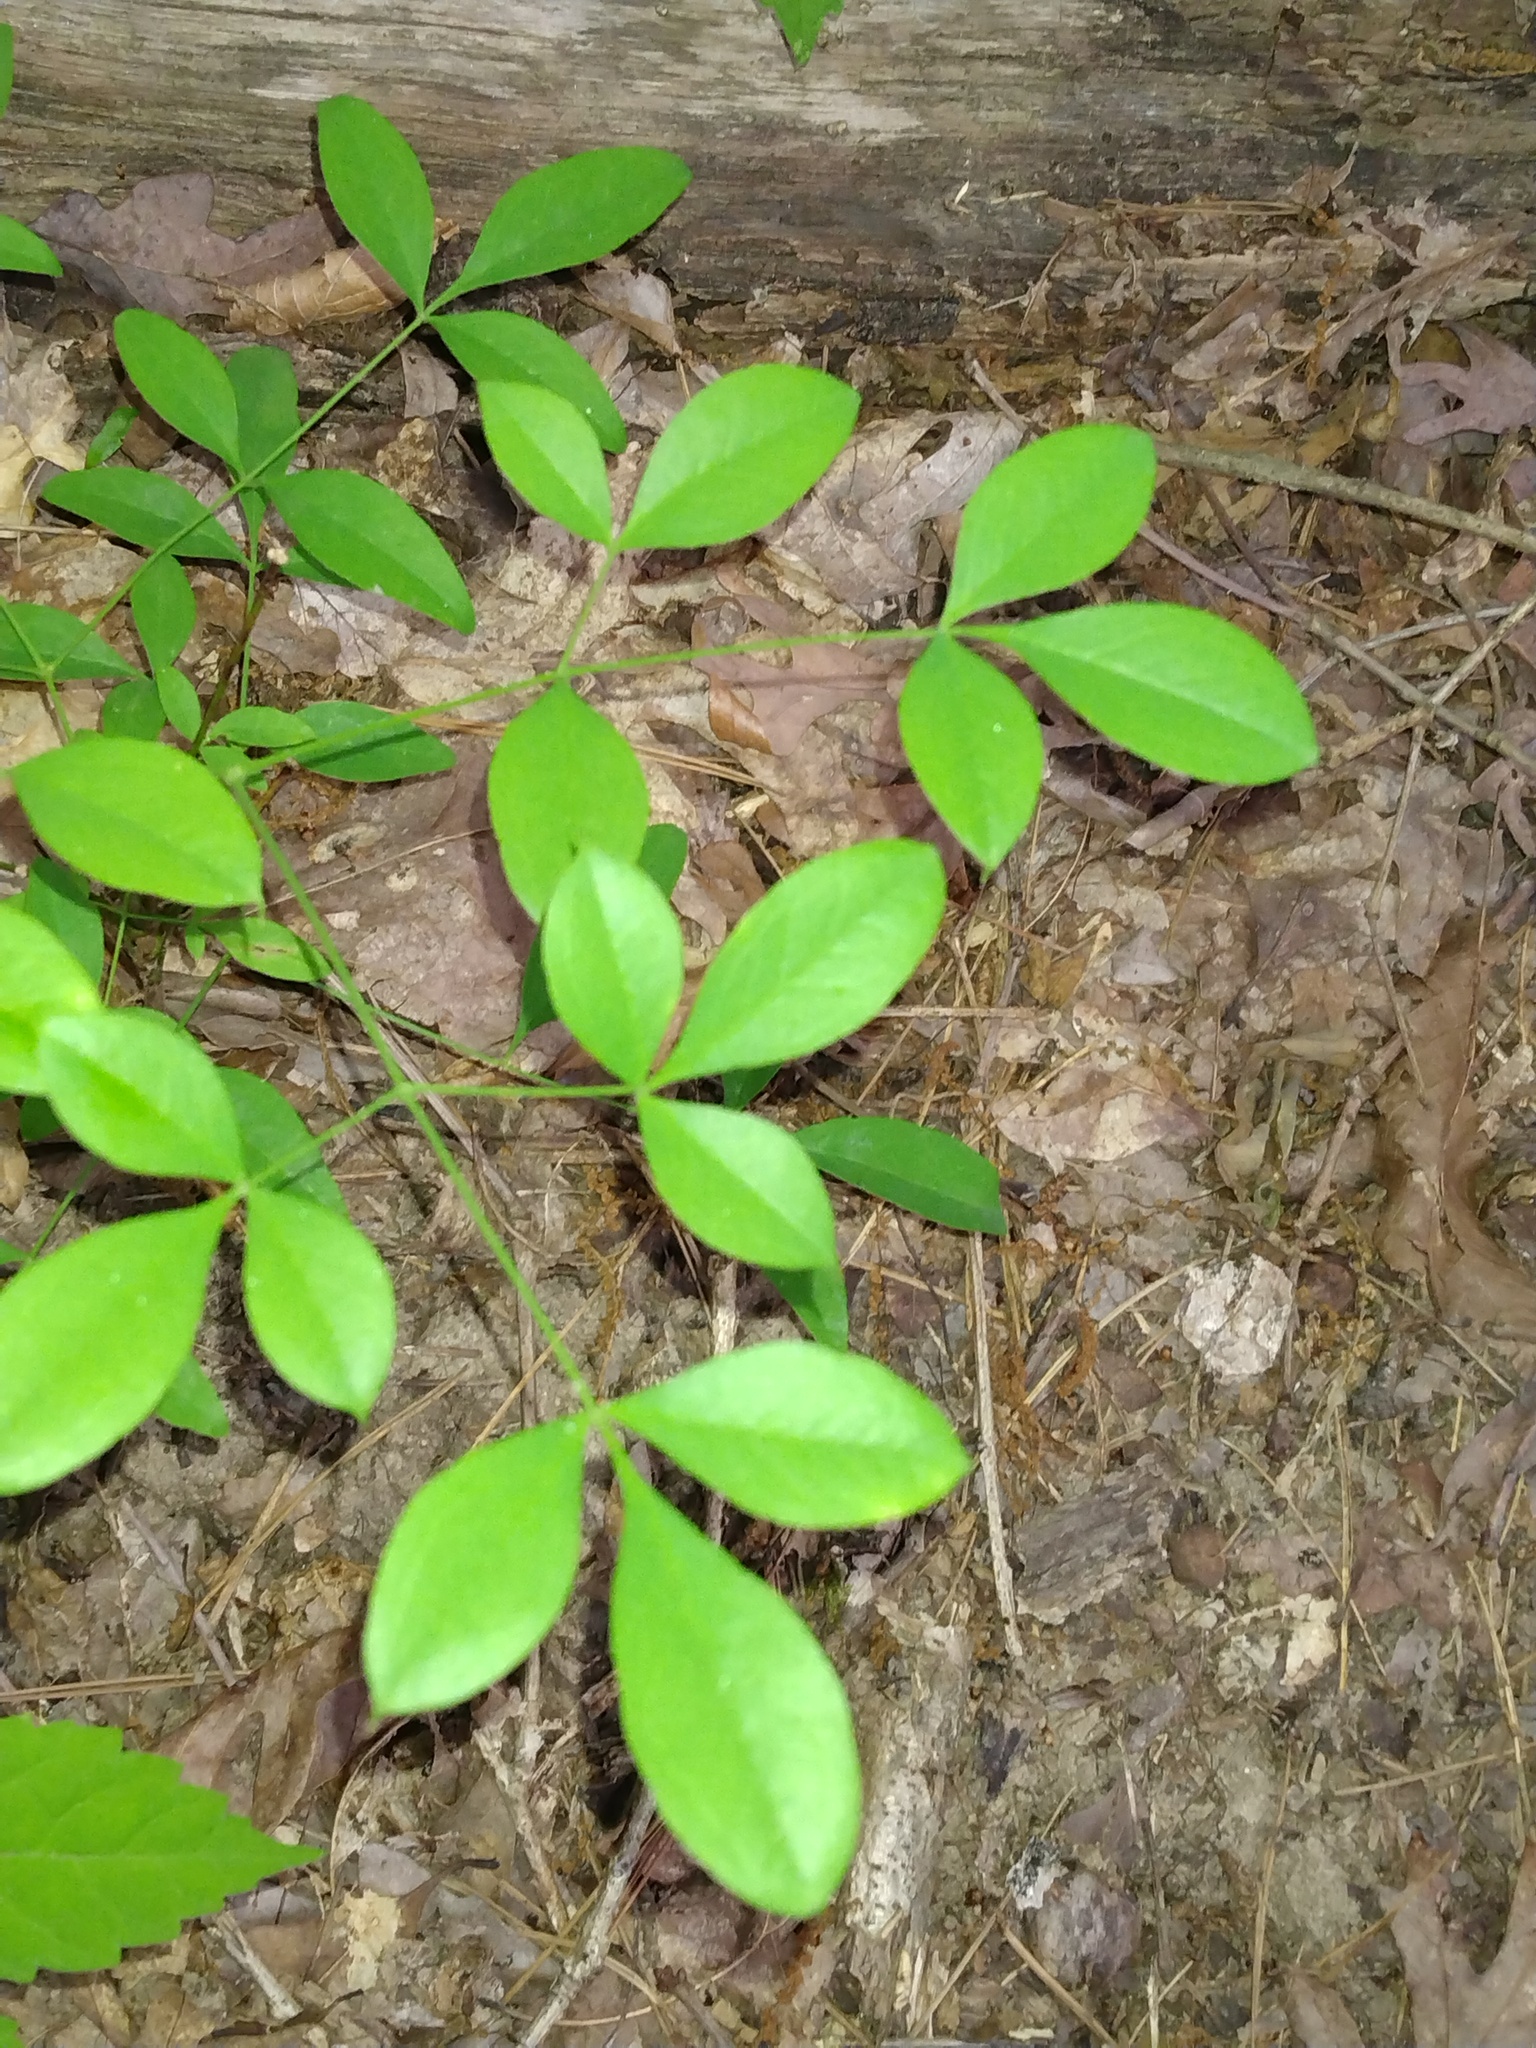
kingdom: Plantae
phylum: Tracheophyta
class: Magnoliopsida
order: Ranunculales
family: Berberidaceae
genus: Nandina
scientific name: Nandina domestica
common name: Sacred bamboo
